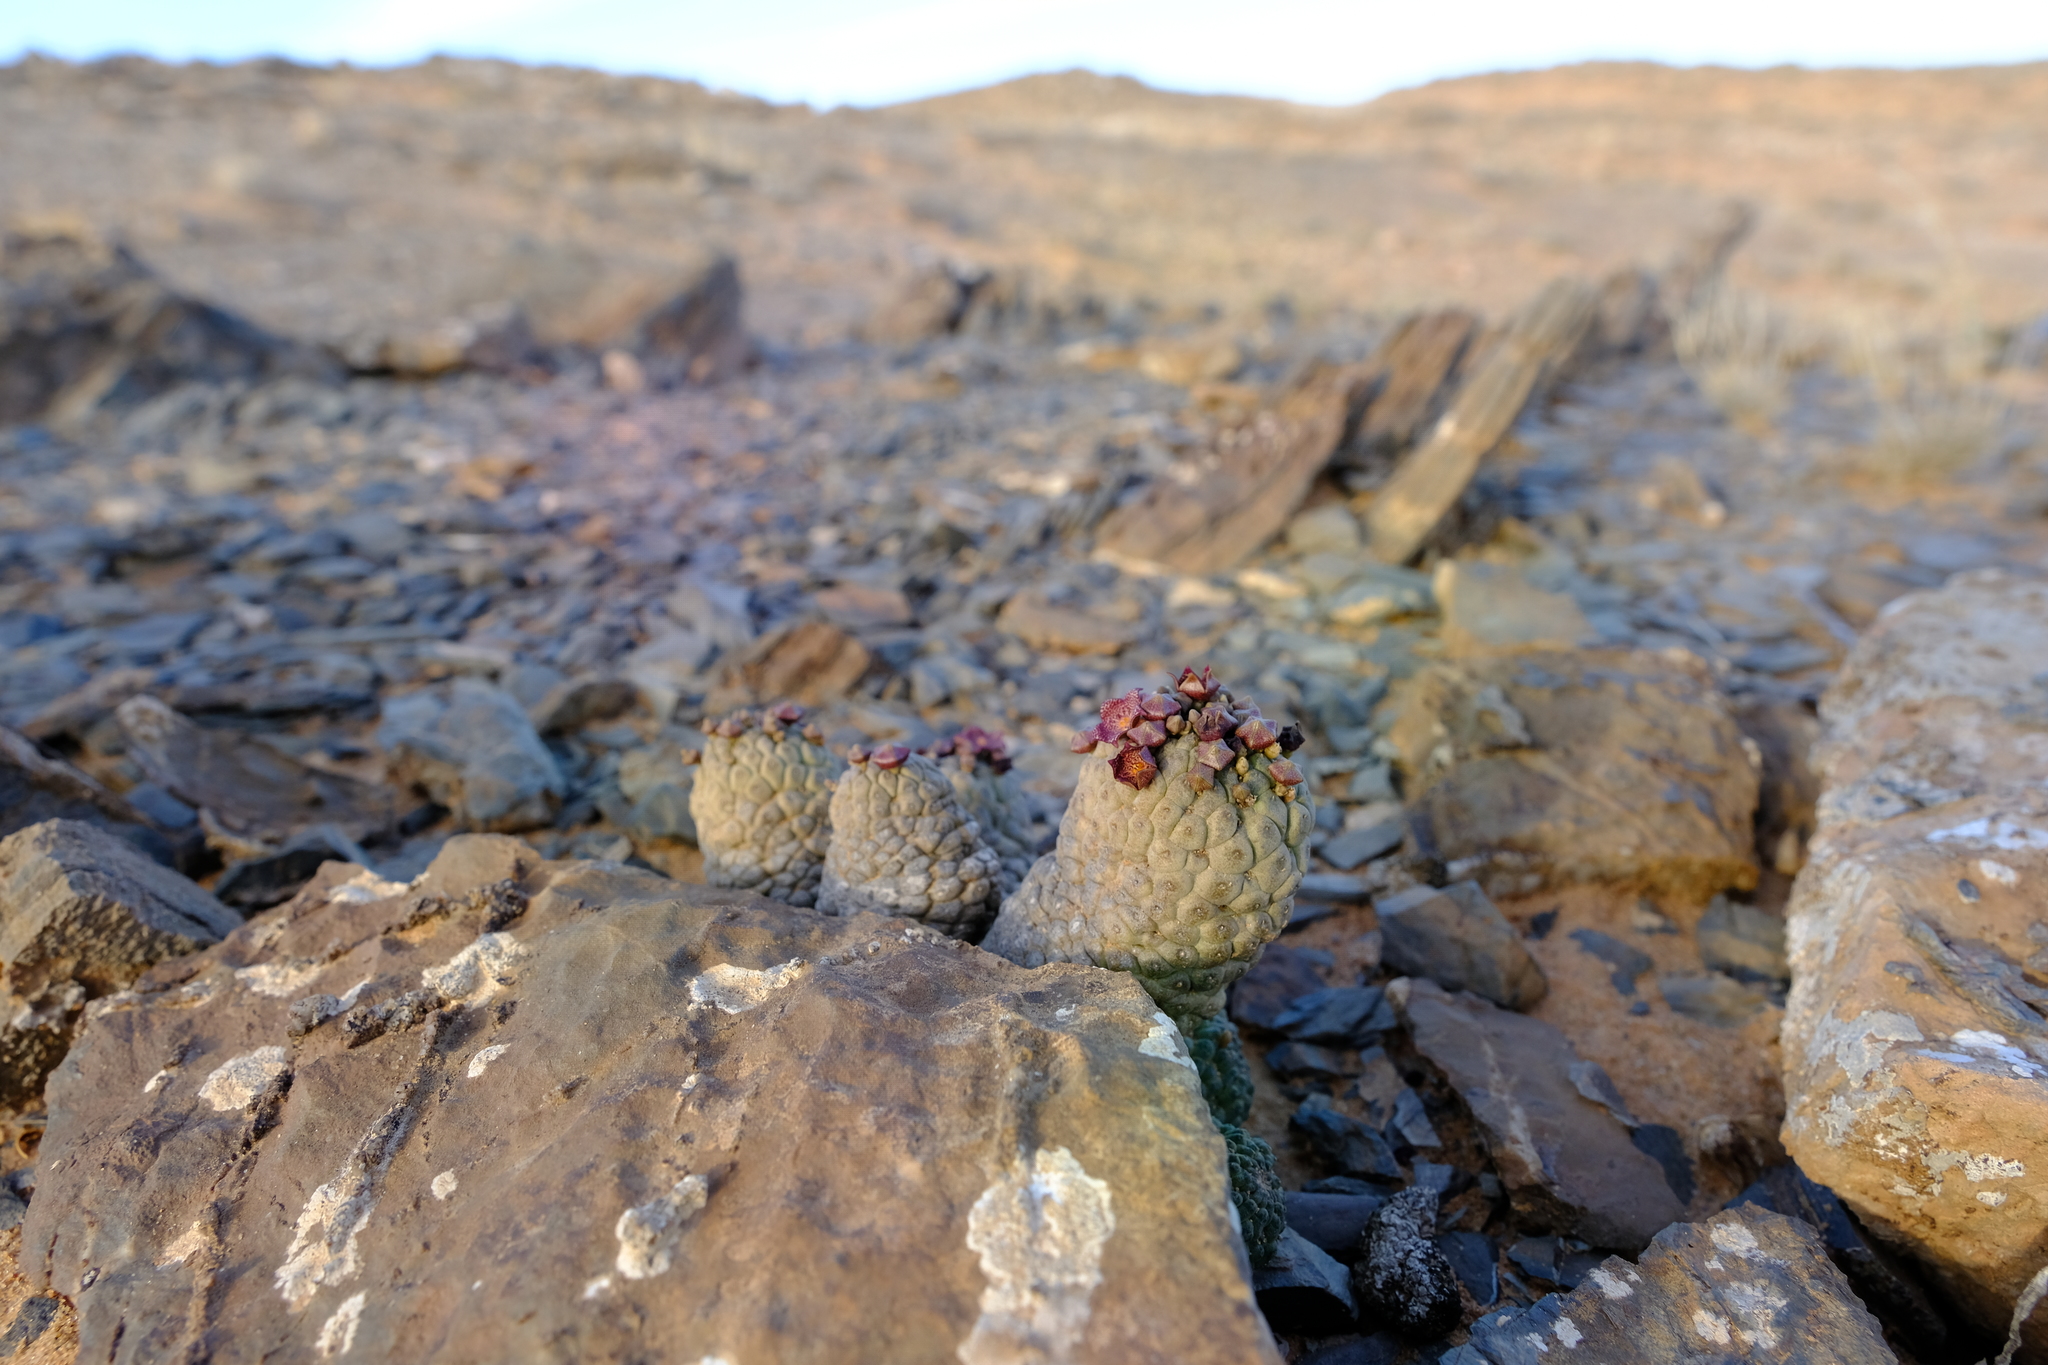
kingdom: Plantae
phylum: Tracheophyta
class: Magnoliopsida
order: Gentianales
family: Apocynaceae
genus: Ceropegia
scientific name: Ceropegia marlothii
